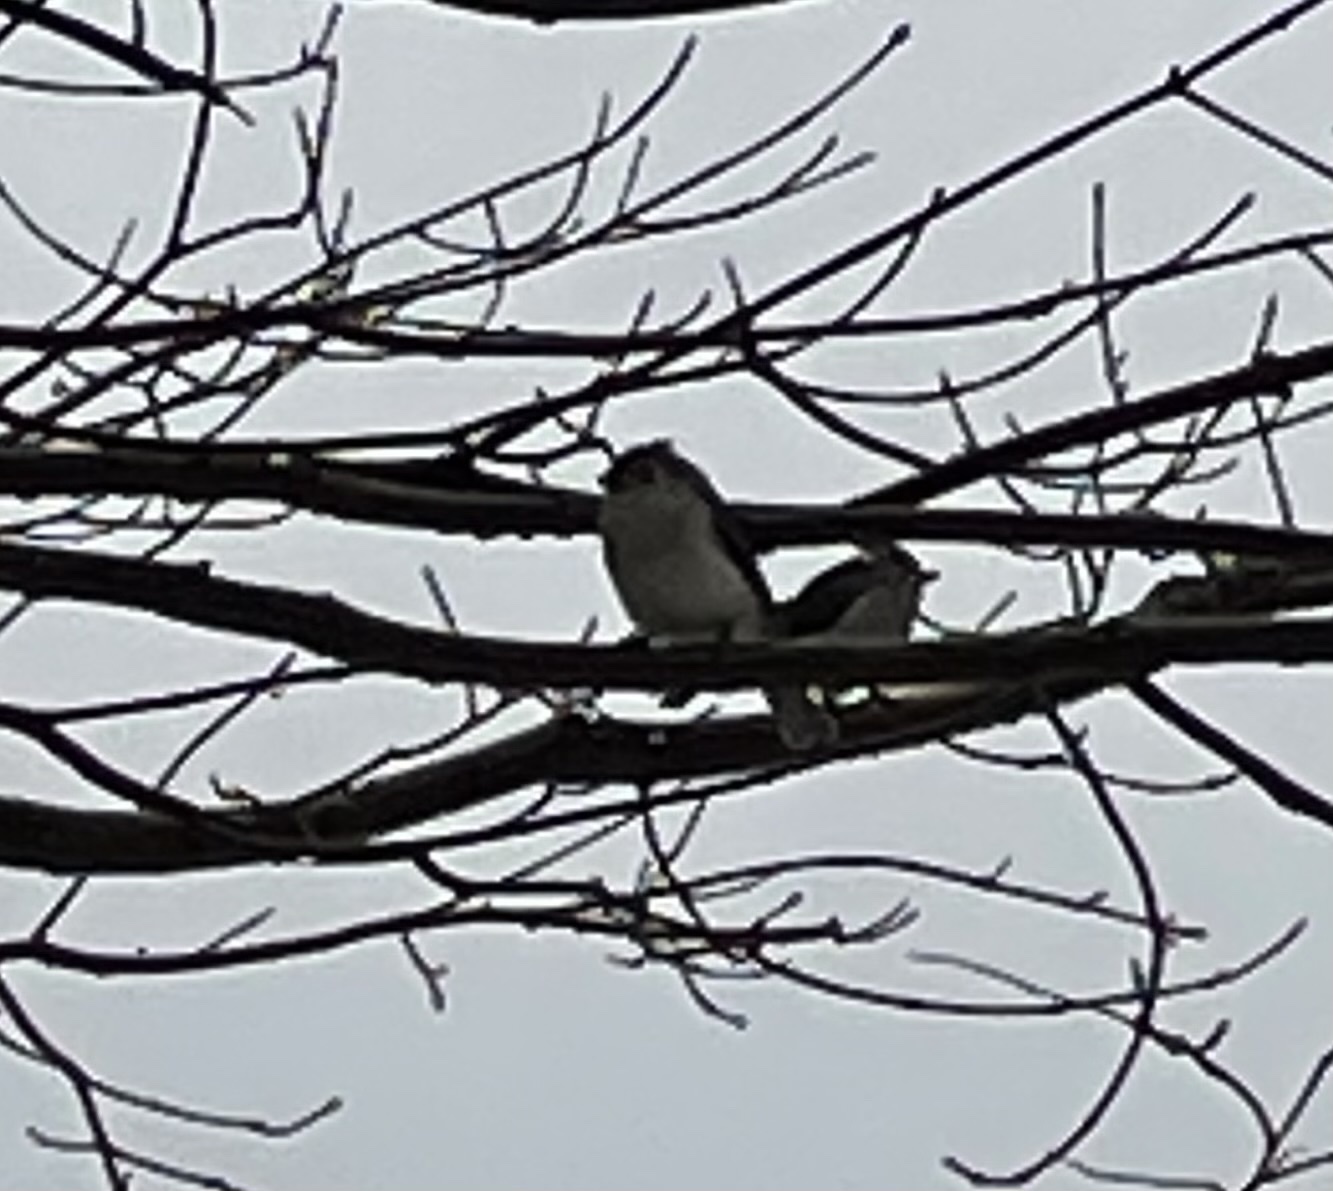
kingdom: Animalia
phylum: Chordata
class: Aves
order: Passeriformes
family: Paridae
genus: Baeolophus
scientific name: Baeolophus bicolor
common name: Tufted titmouse
